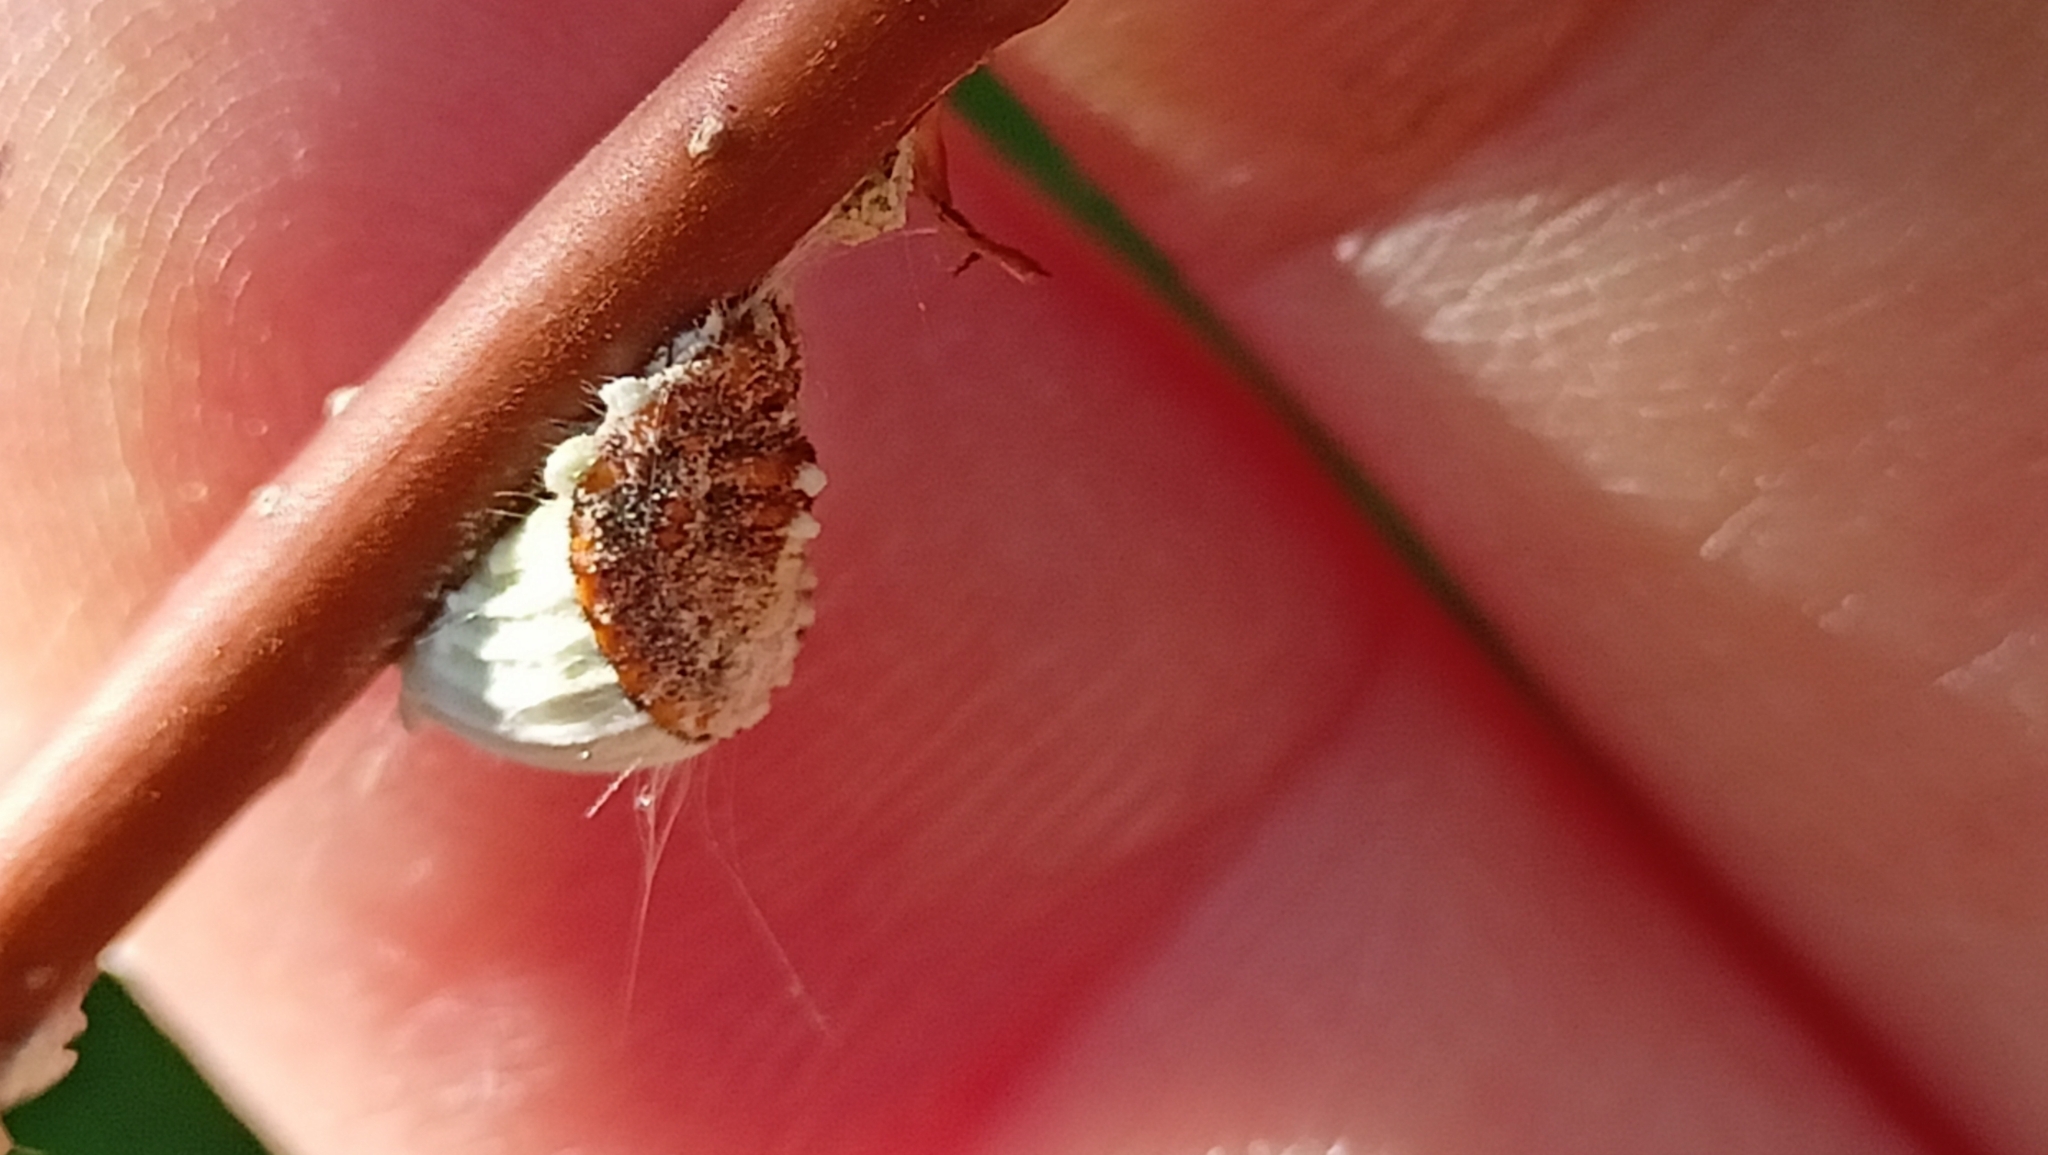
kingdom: Animalia
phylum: Arthropoda
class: Insecta
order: Hemiptera
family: Margarodidae
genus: Icerya
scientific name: Icerya purchasi
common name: Cottony cushion scale
